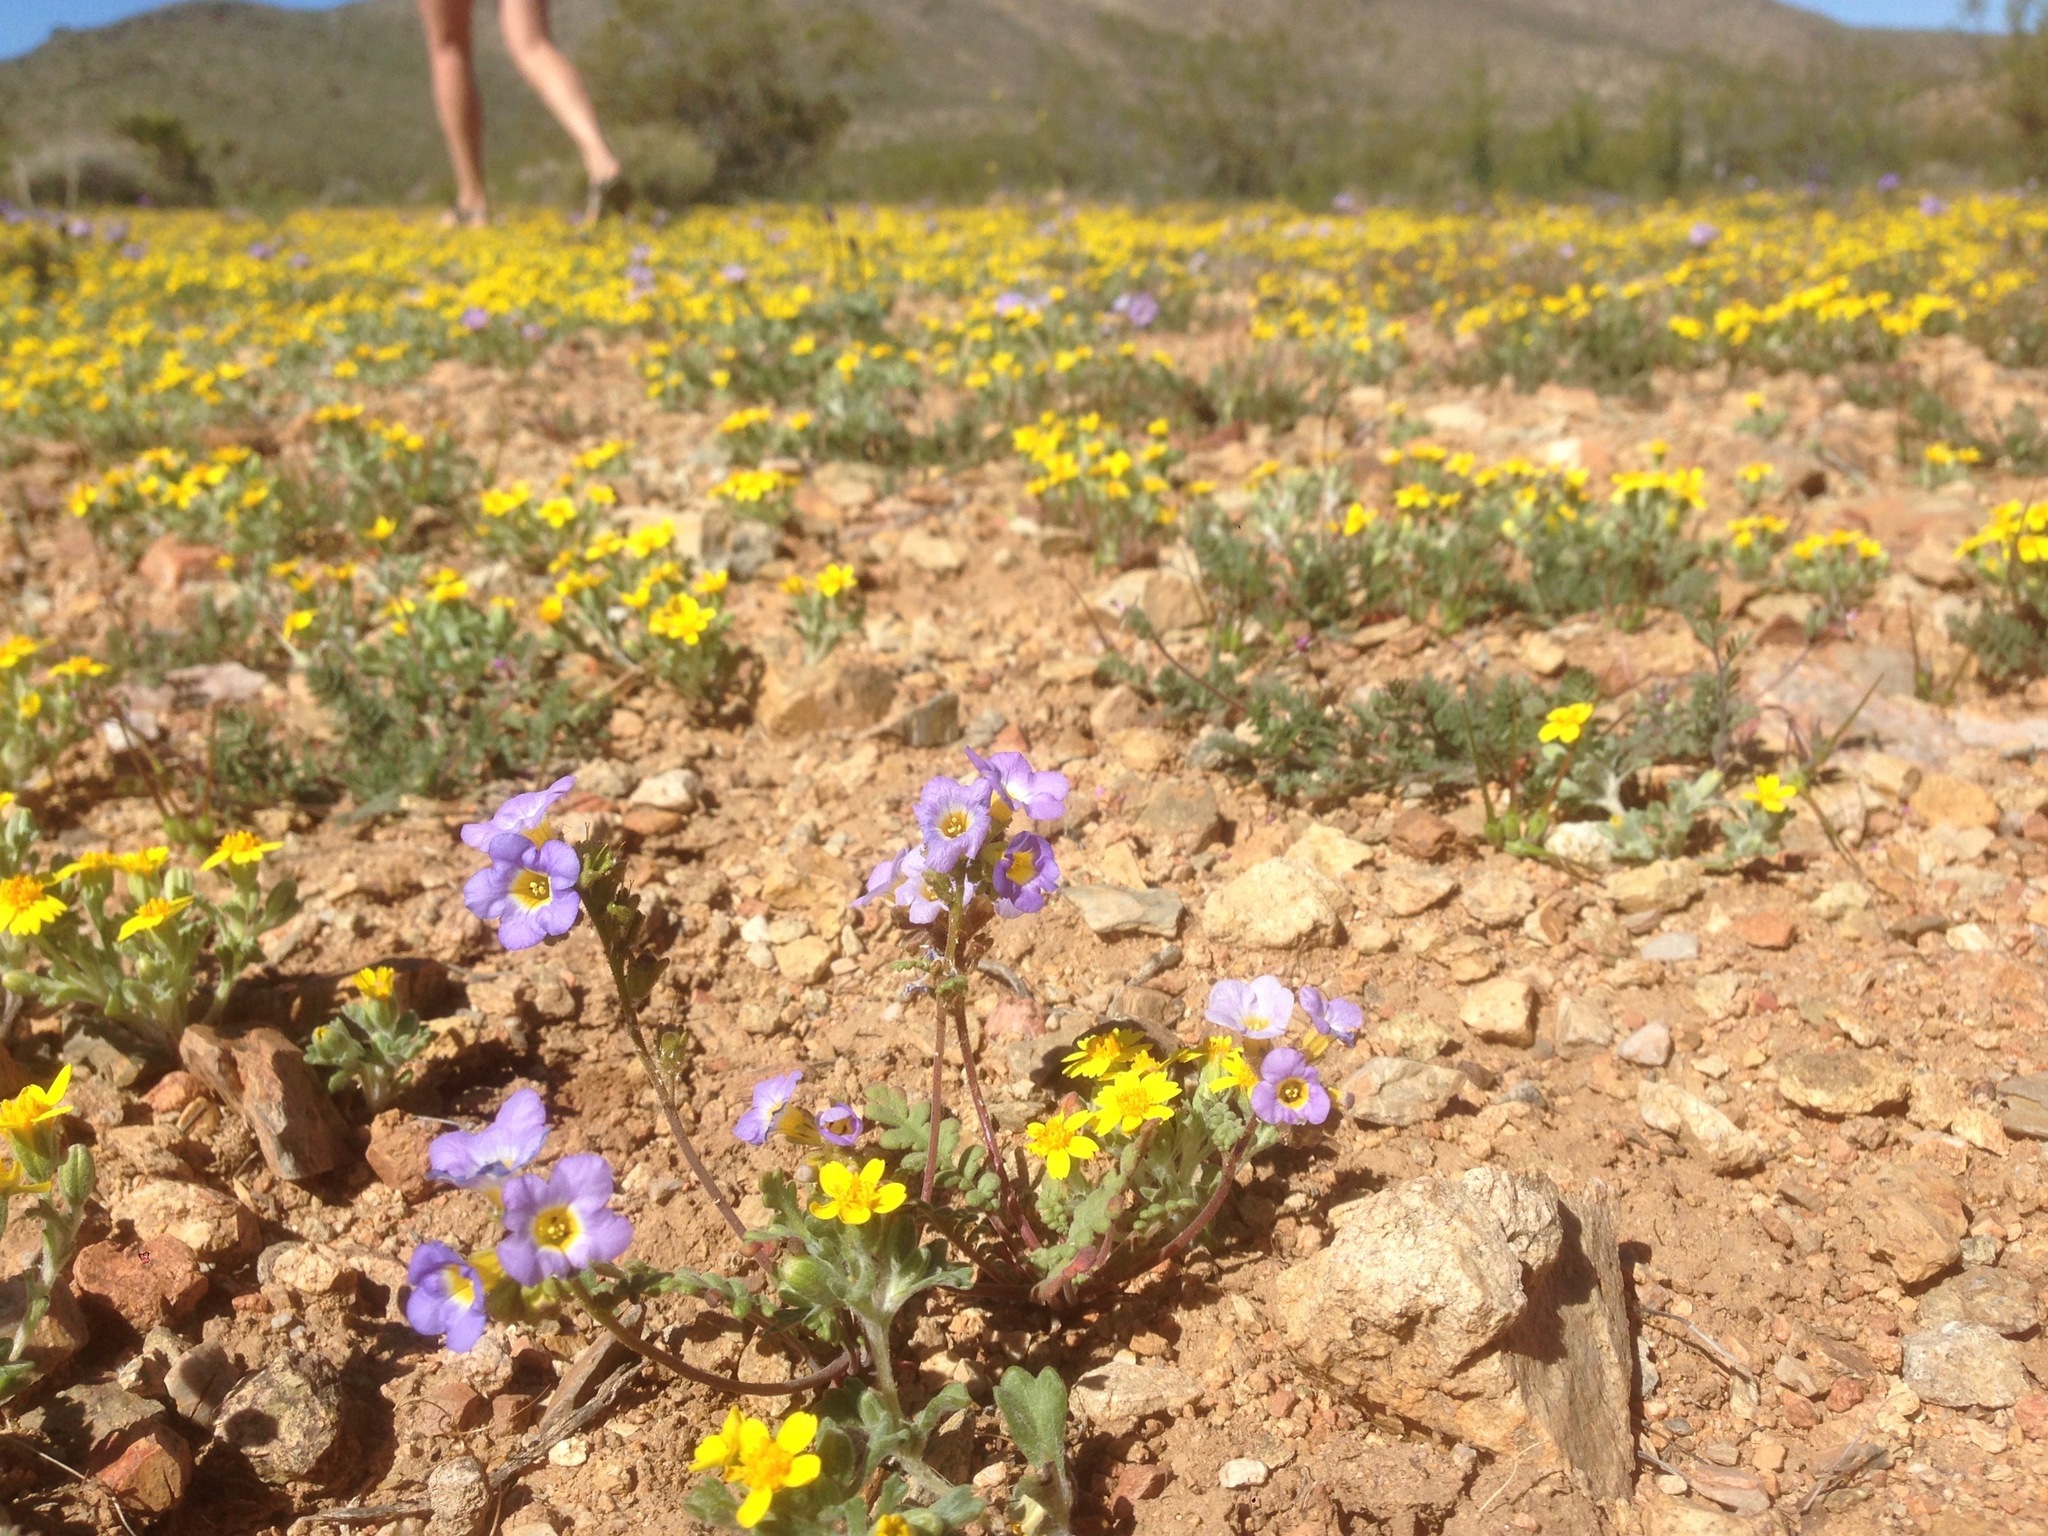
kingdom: Plantae
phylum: Tracheophyta
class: Magnoliopsida
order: Boraginales
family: Hydrophyllaceae
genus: Phacelia
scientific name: Phacelia fremontii
